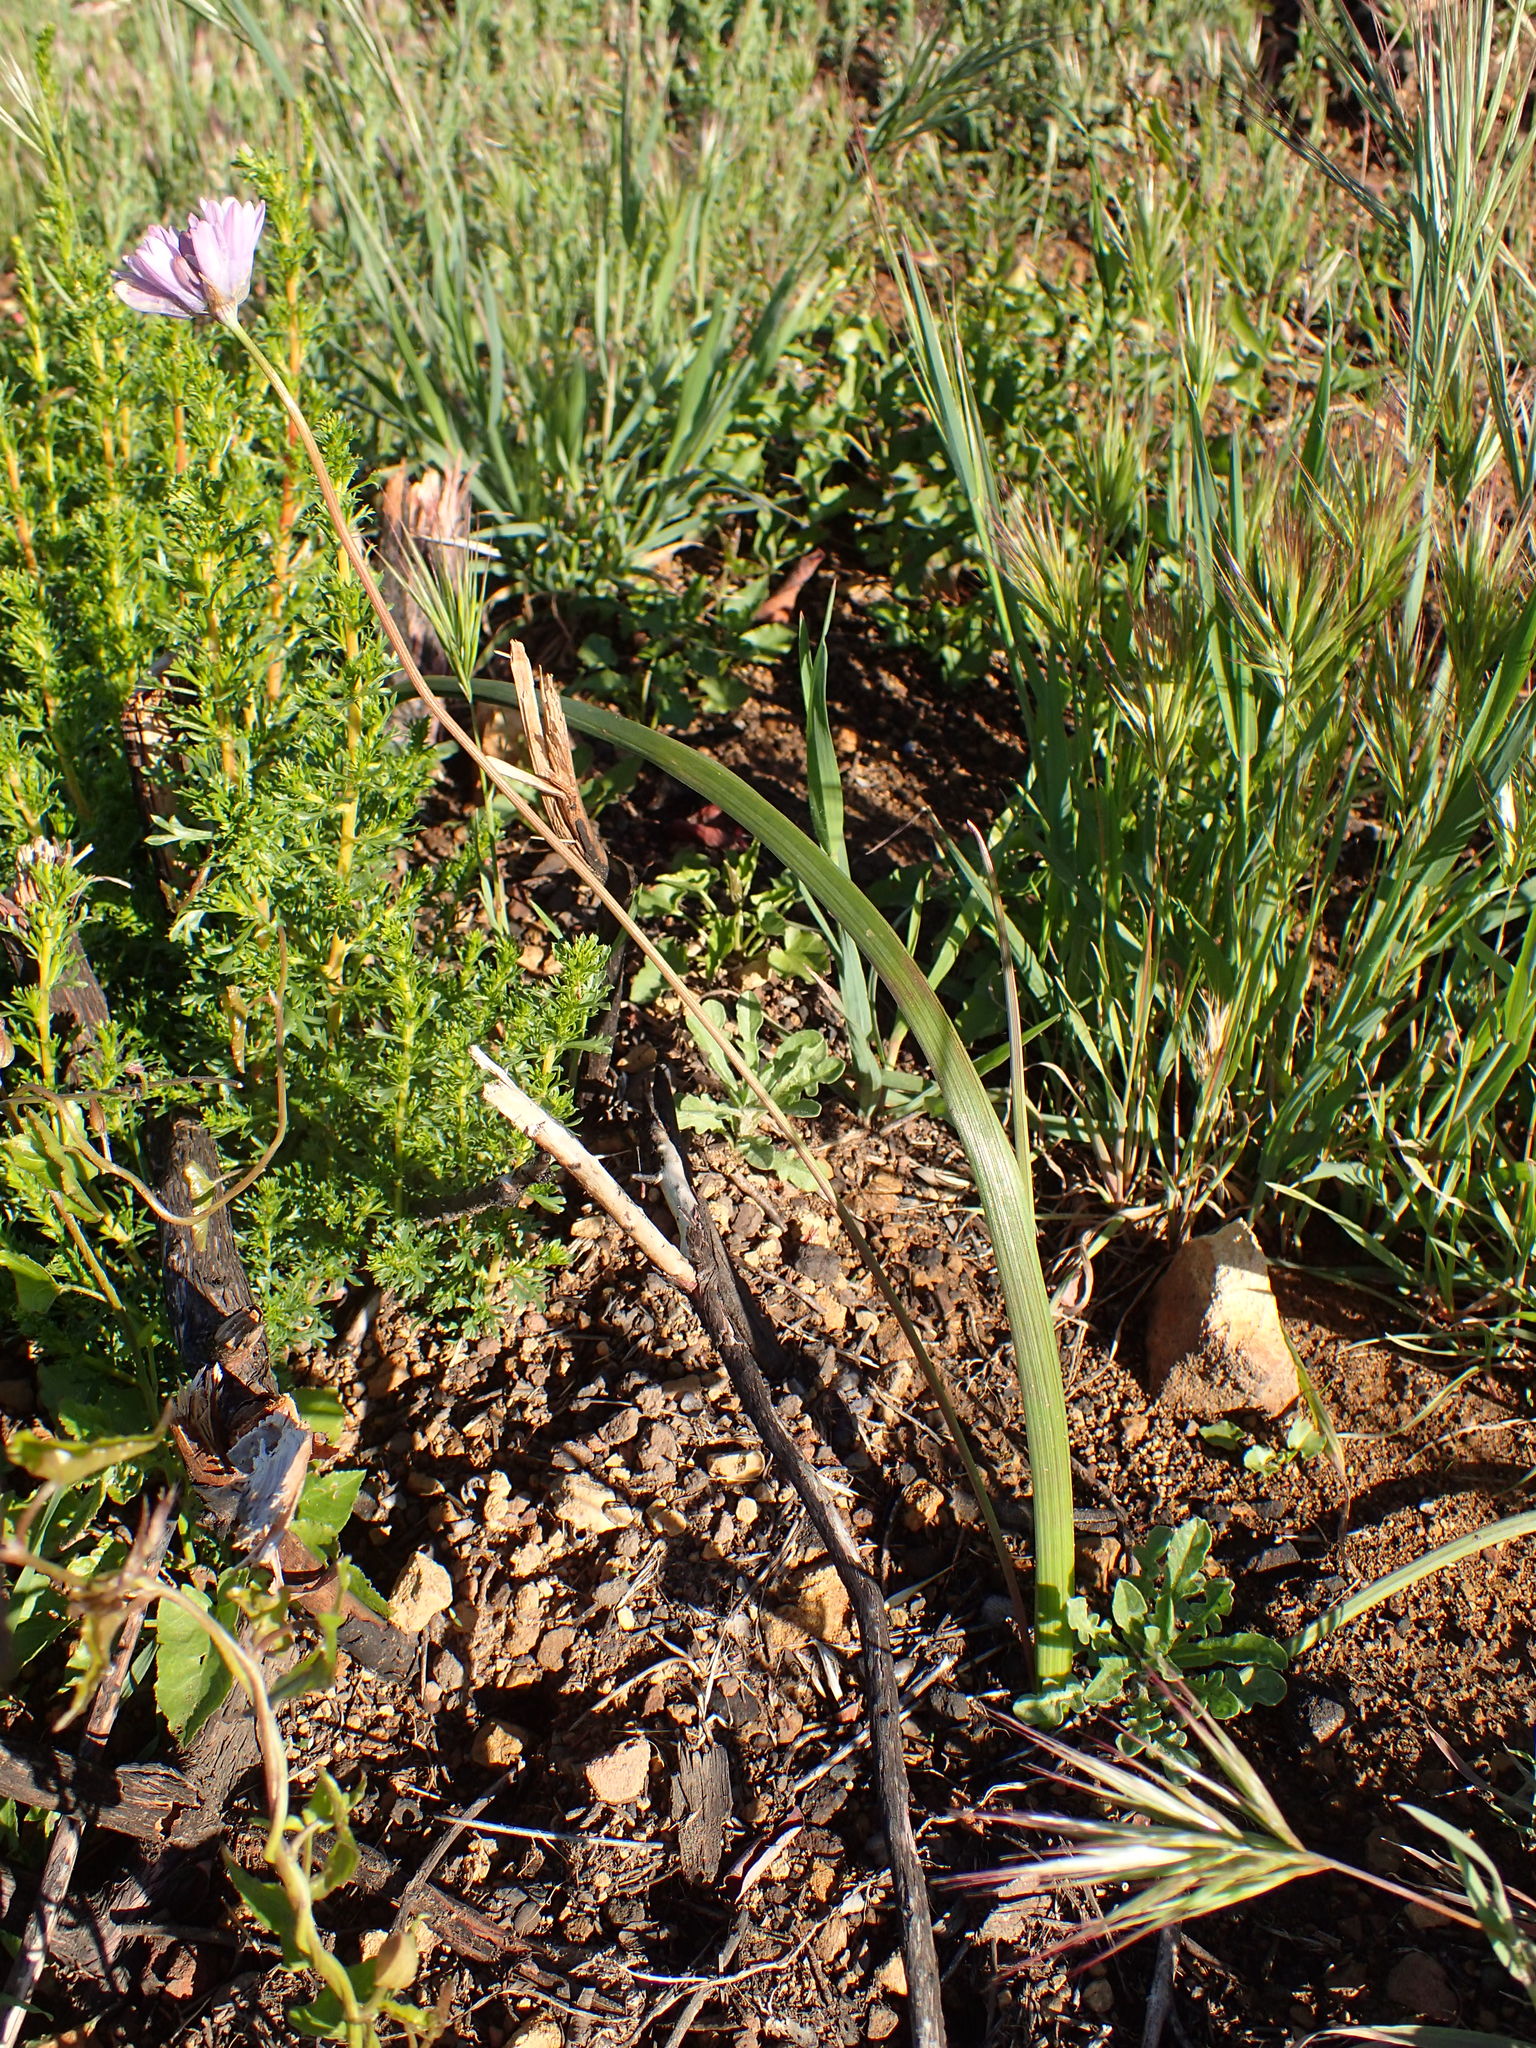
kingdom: Plantae
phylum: Tracheophyta
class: Liliopsida
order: Asparagales
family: Asparagaceae
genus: Dipterostemon
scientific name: Dipterostemon capitatus
